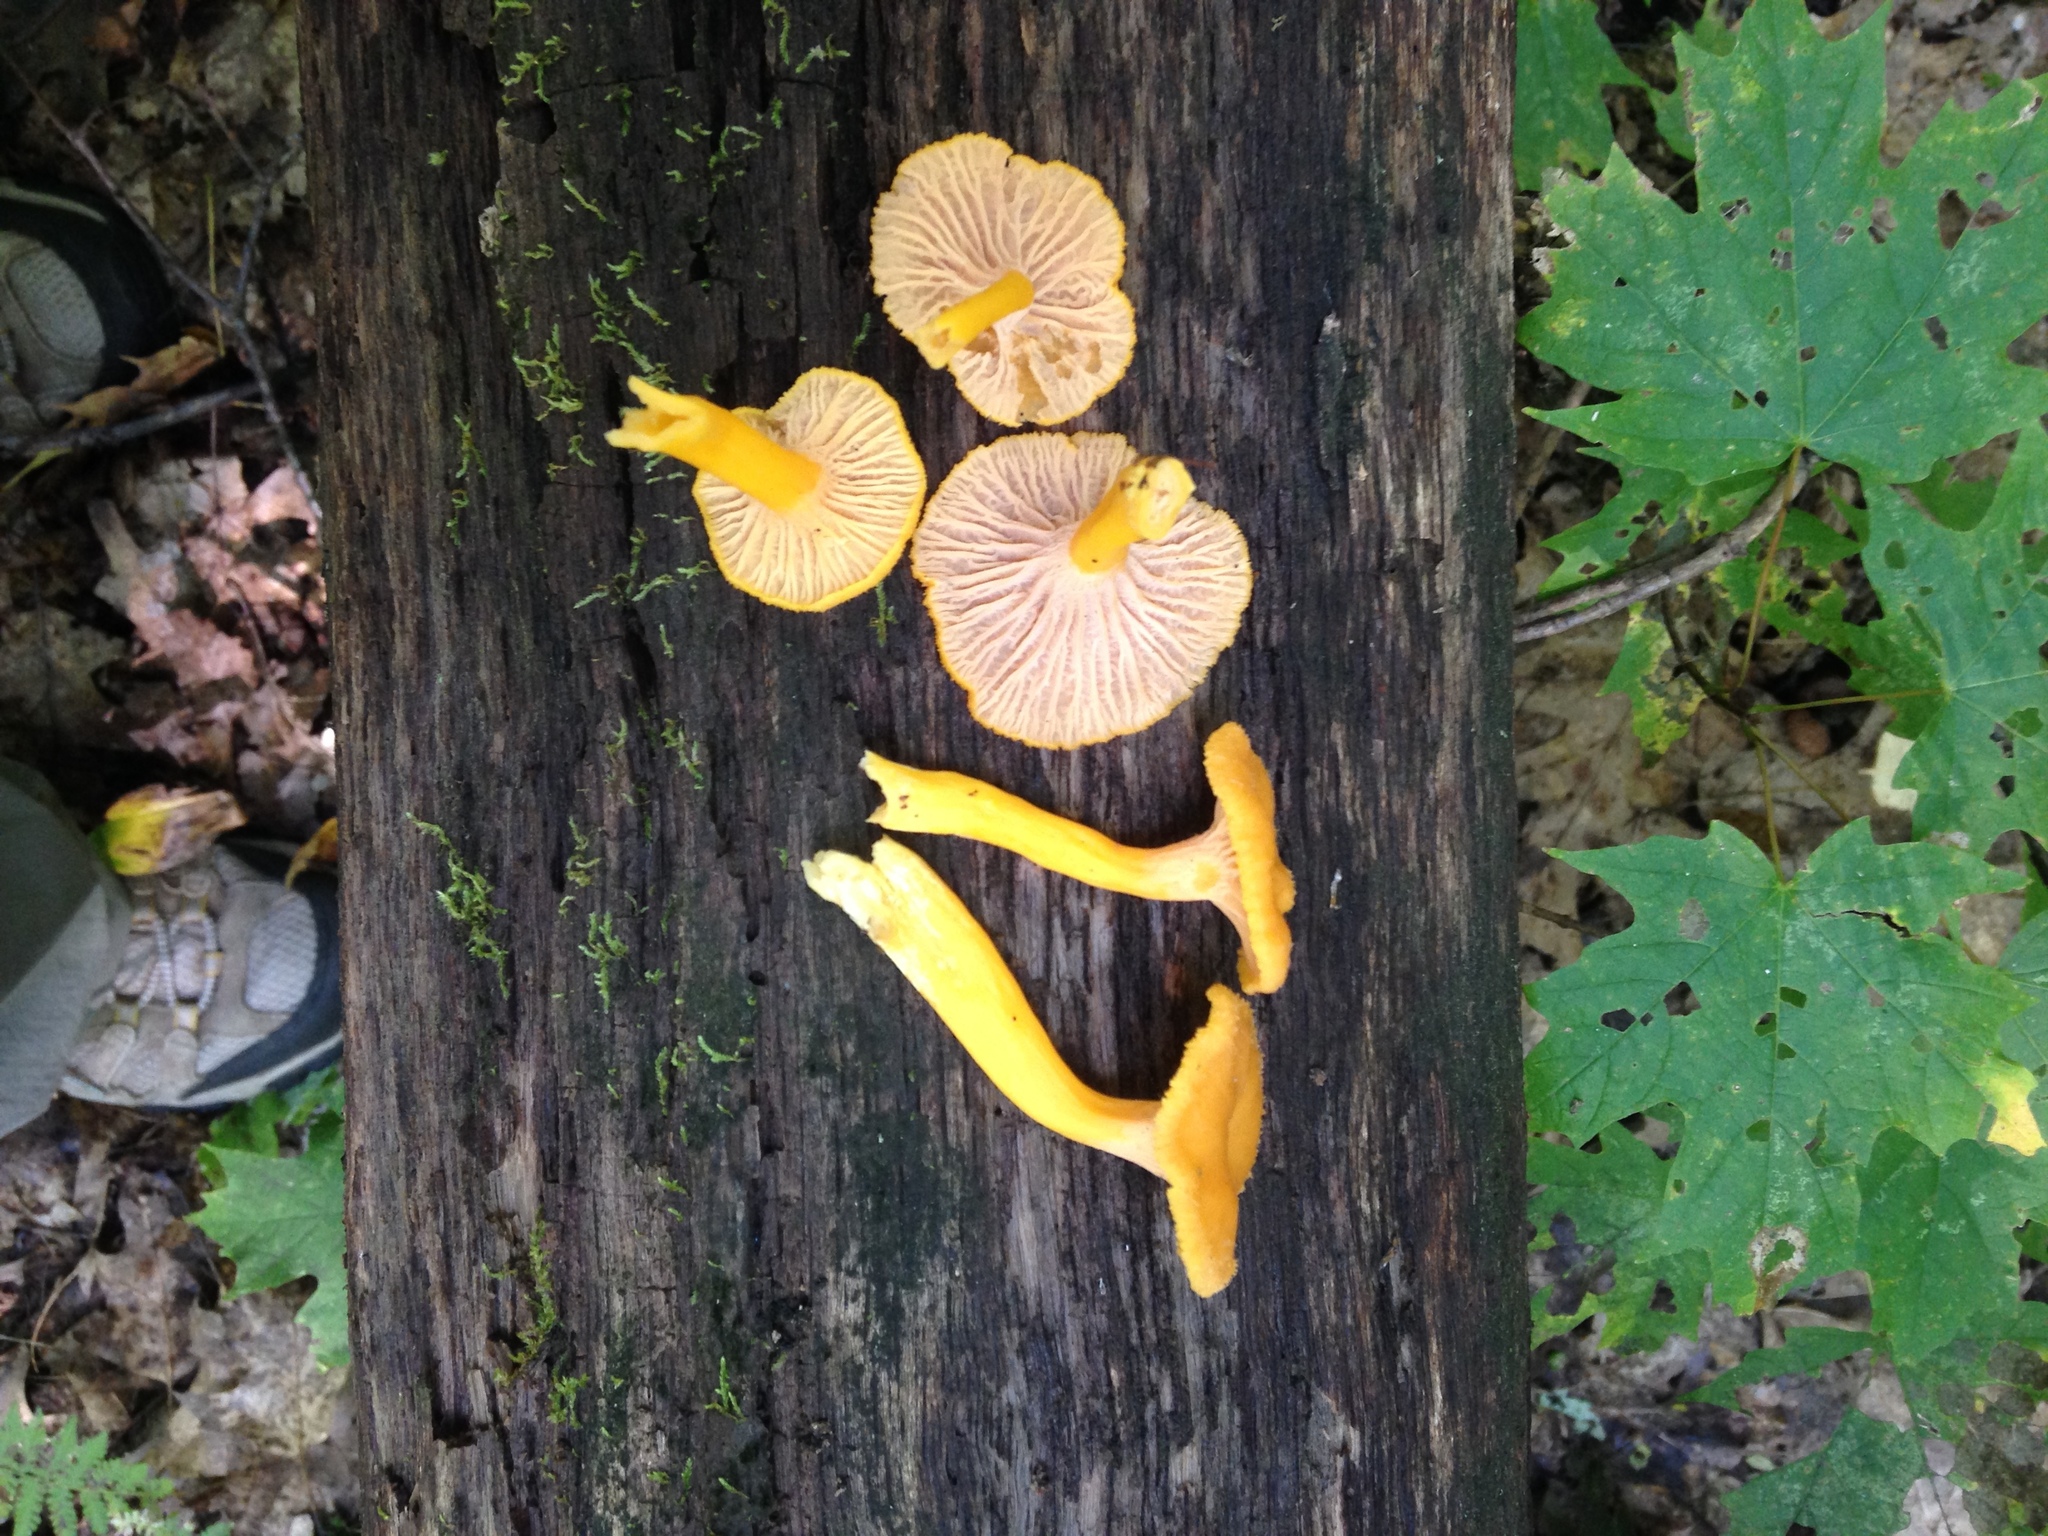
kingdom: Fungi
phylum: Basidiomycota
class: Agaricomycetes
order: Cantharellales
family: Hydnaceae
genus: Craterellus
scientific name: Craterellus ignicolor
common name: Flame chanterelle
